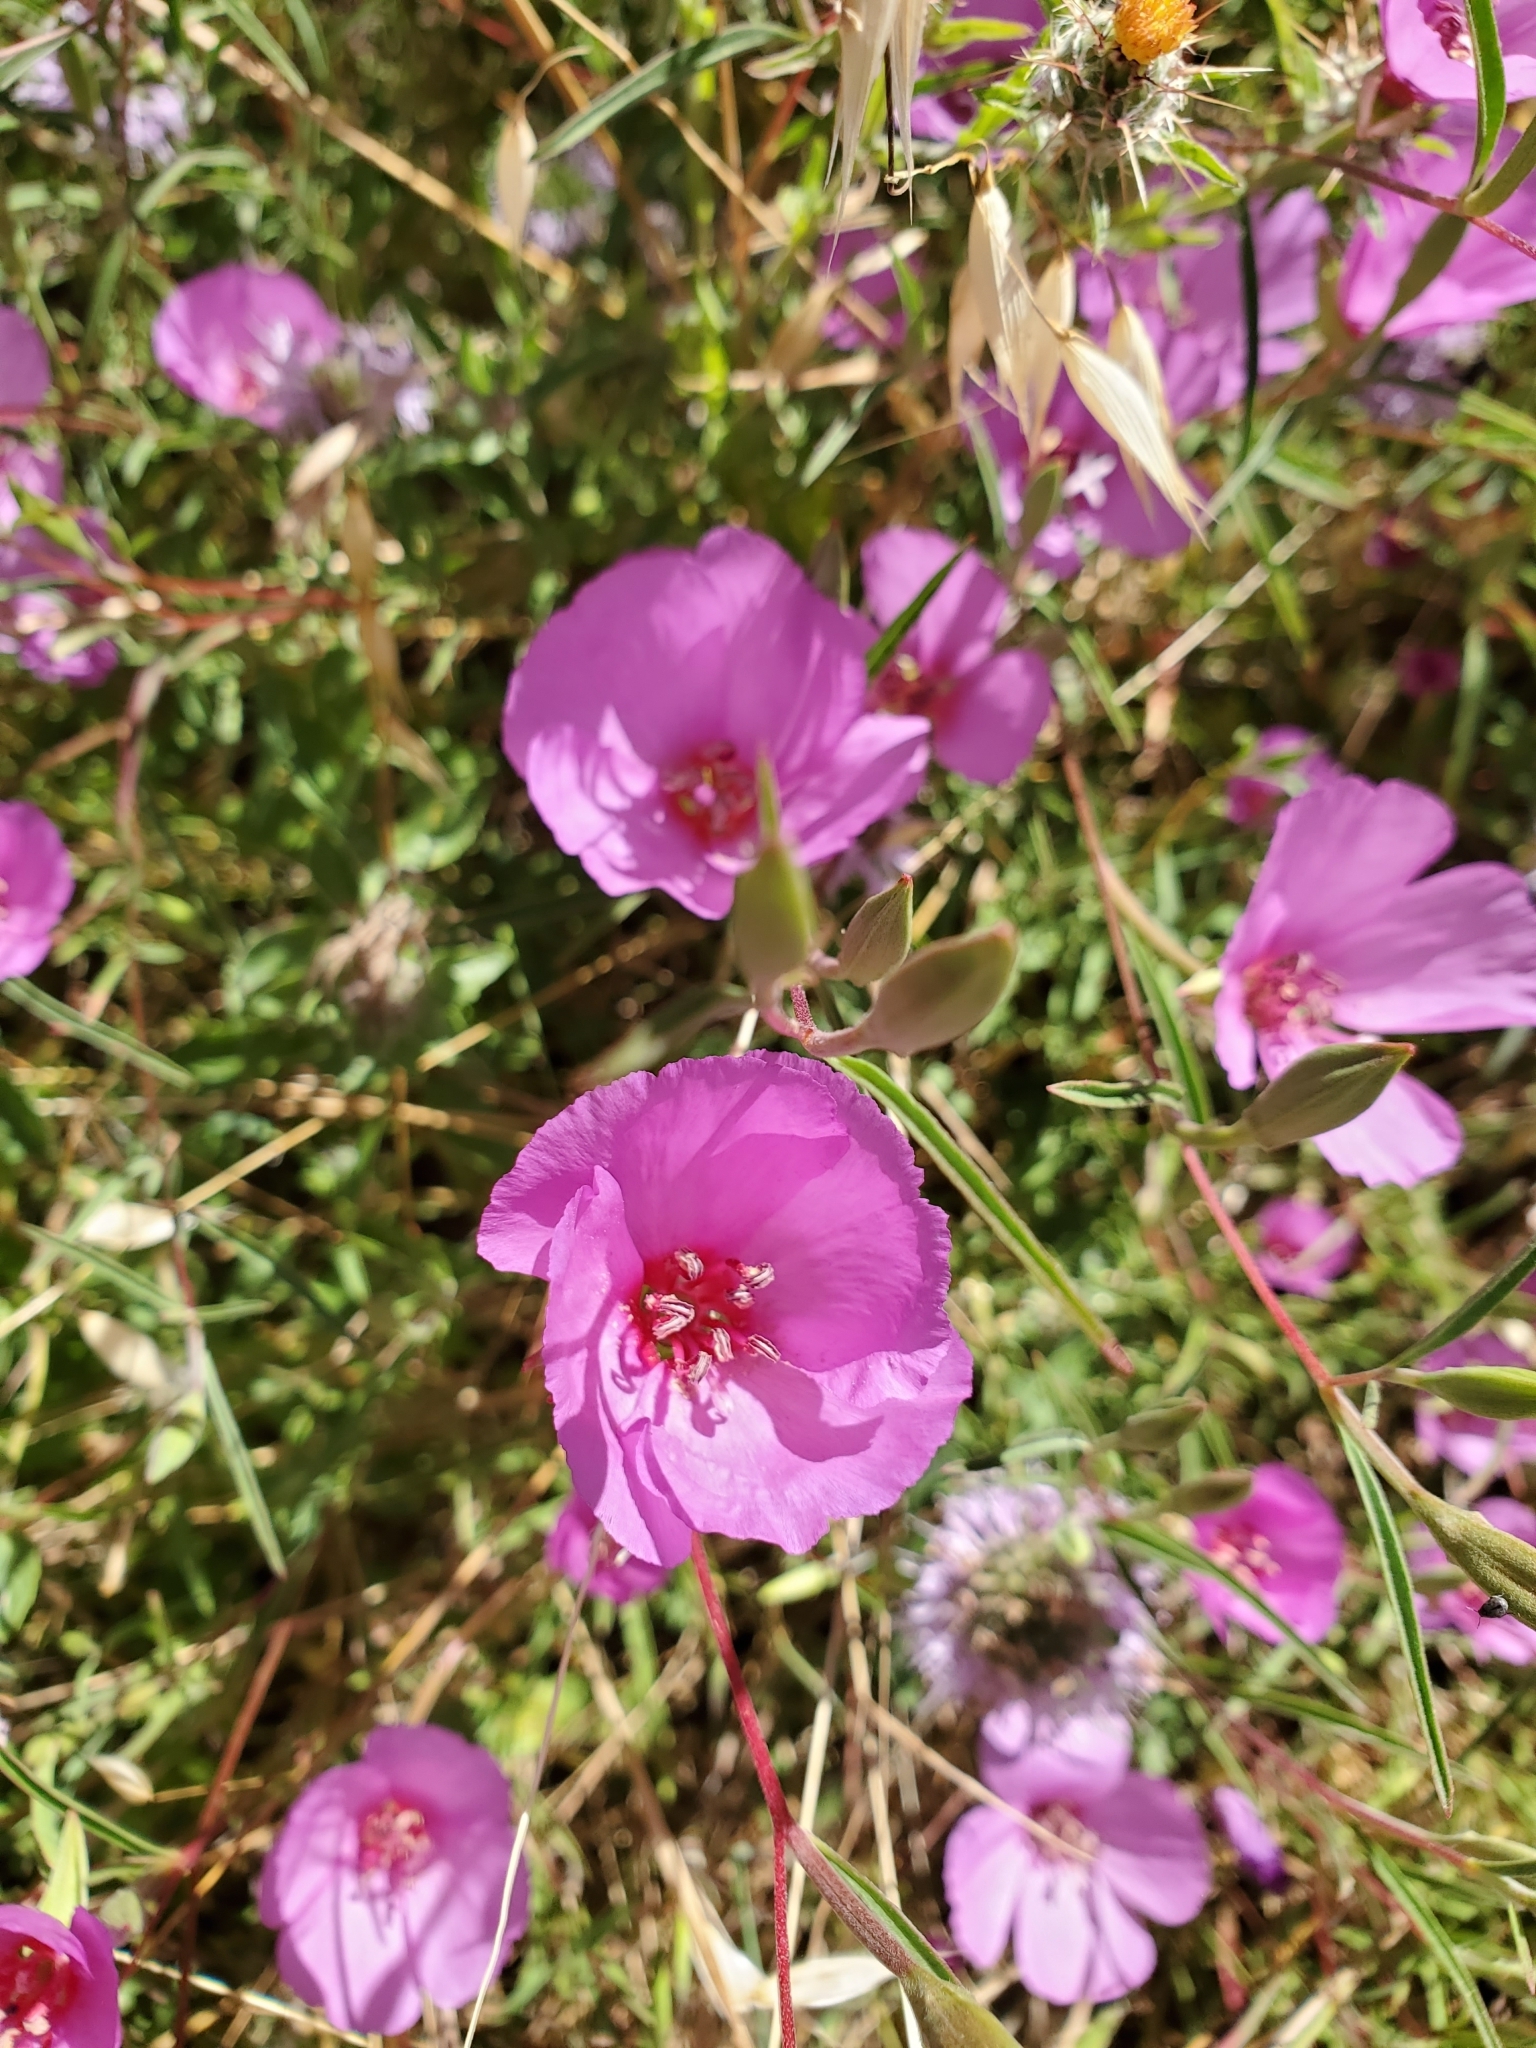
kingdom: Plantae
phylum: Tracheophyta
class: Magnoliopsida
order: Myrtales
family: Onagraceae
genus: Clarkia
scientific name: Clarkia rubicunda
